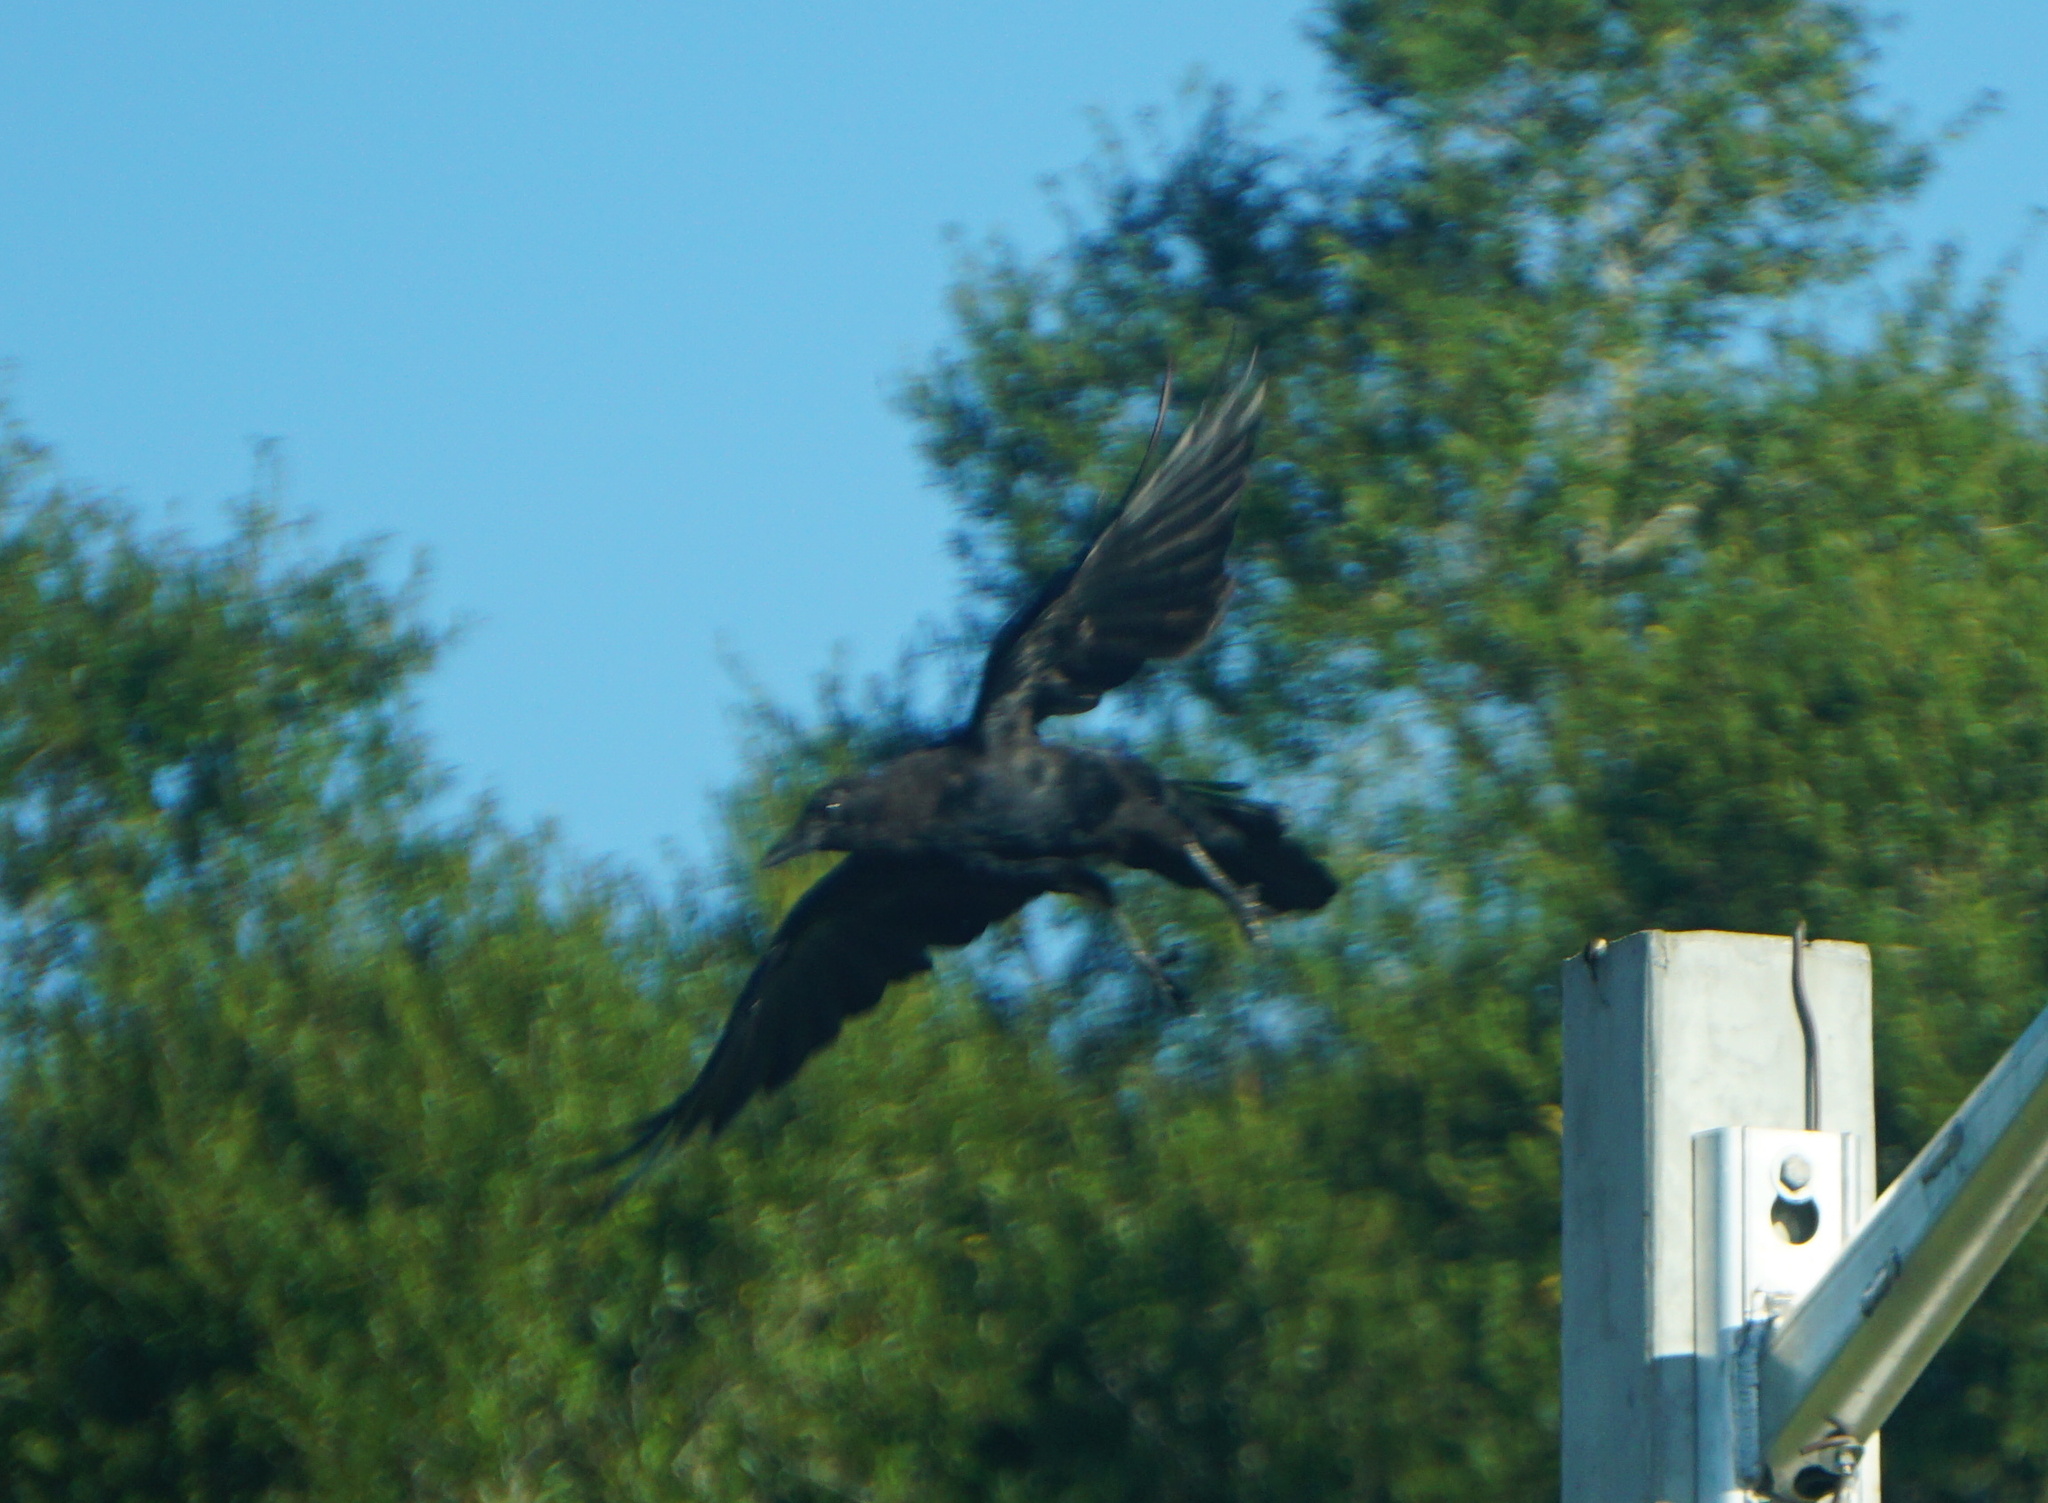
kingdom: Animalia
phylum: Chordata
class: Aves
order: Passeriformes
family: Corvidae
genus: Corvus
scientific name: Corvus
